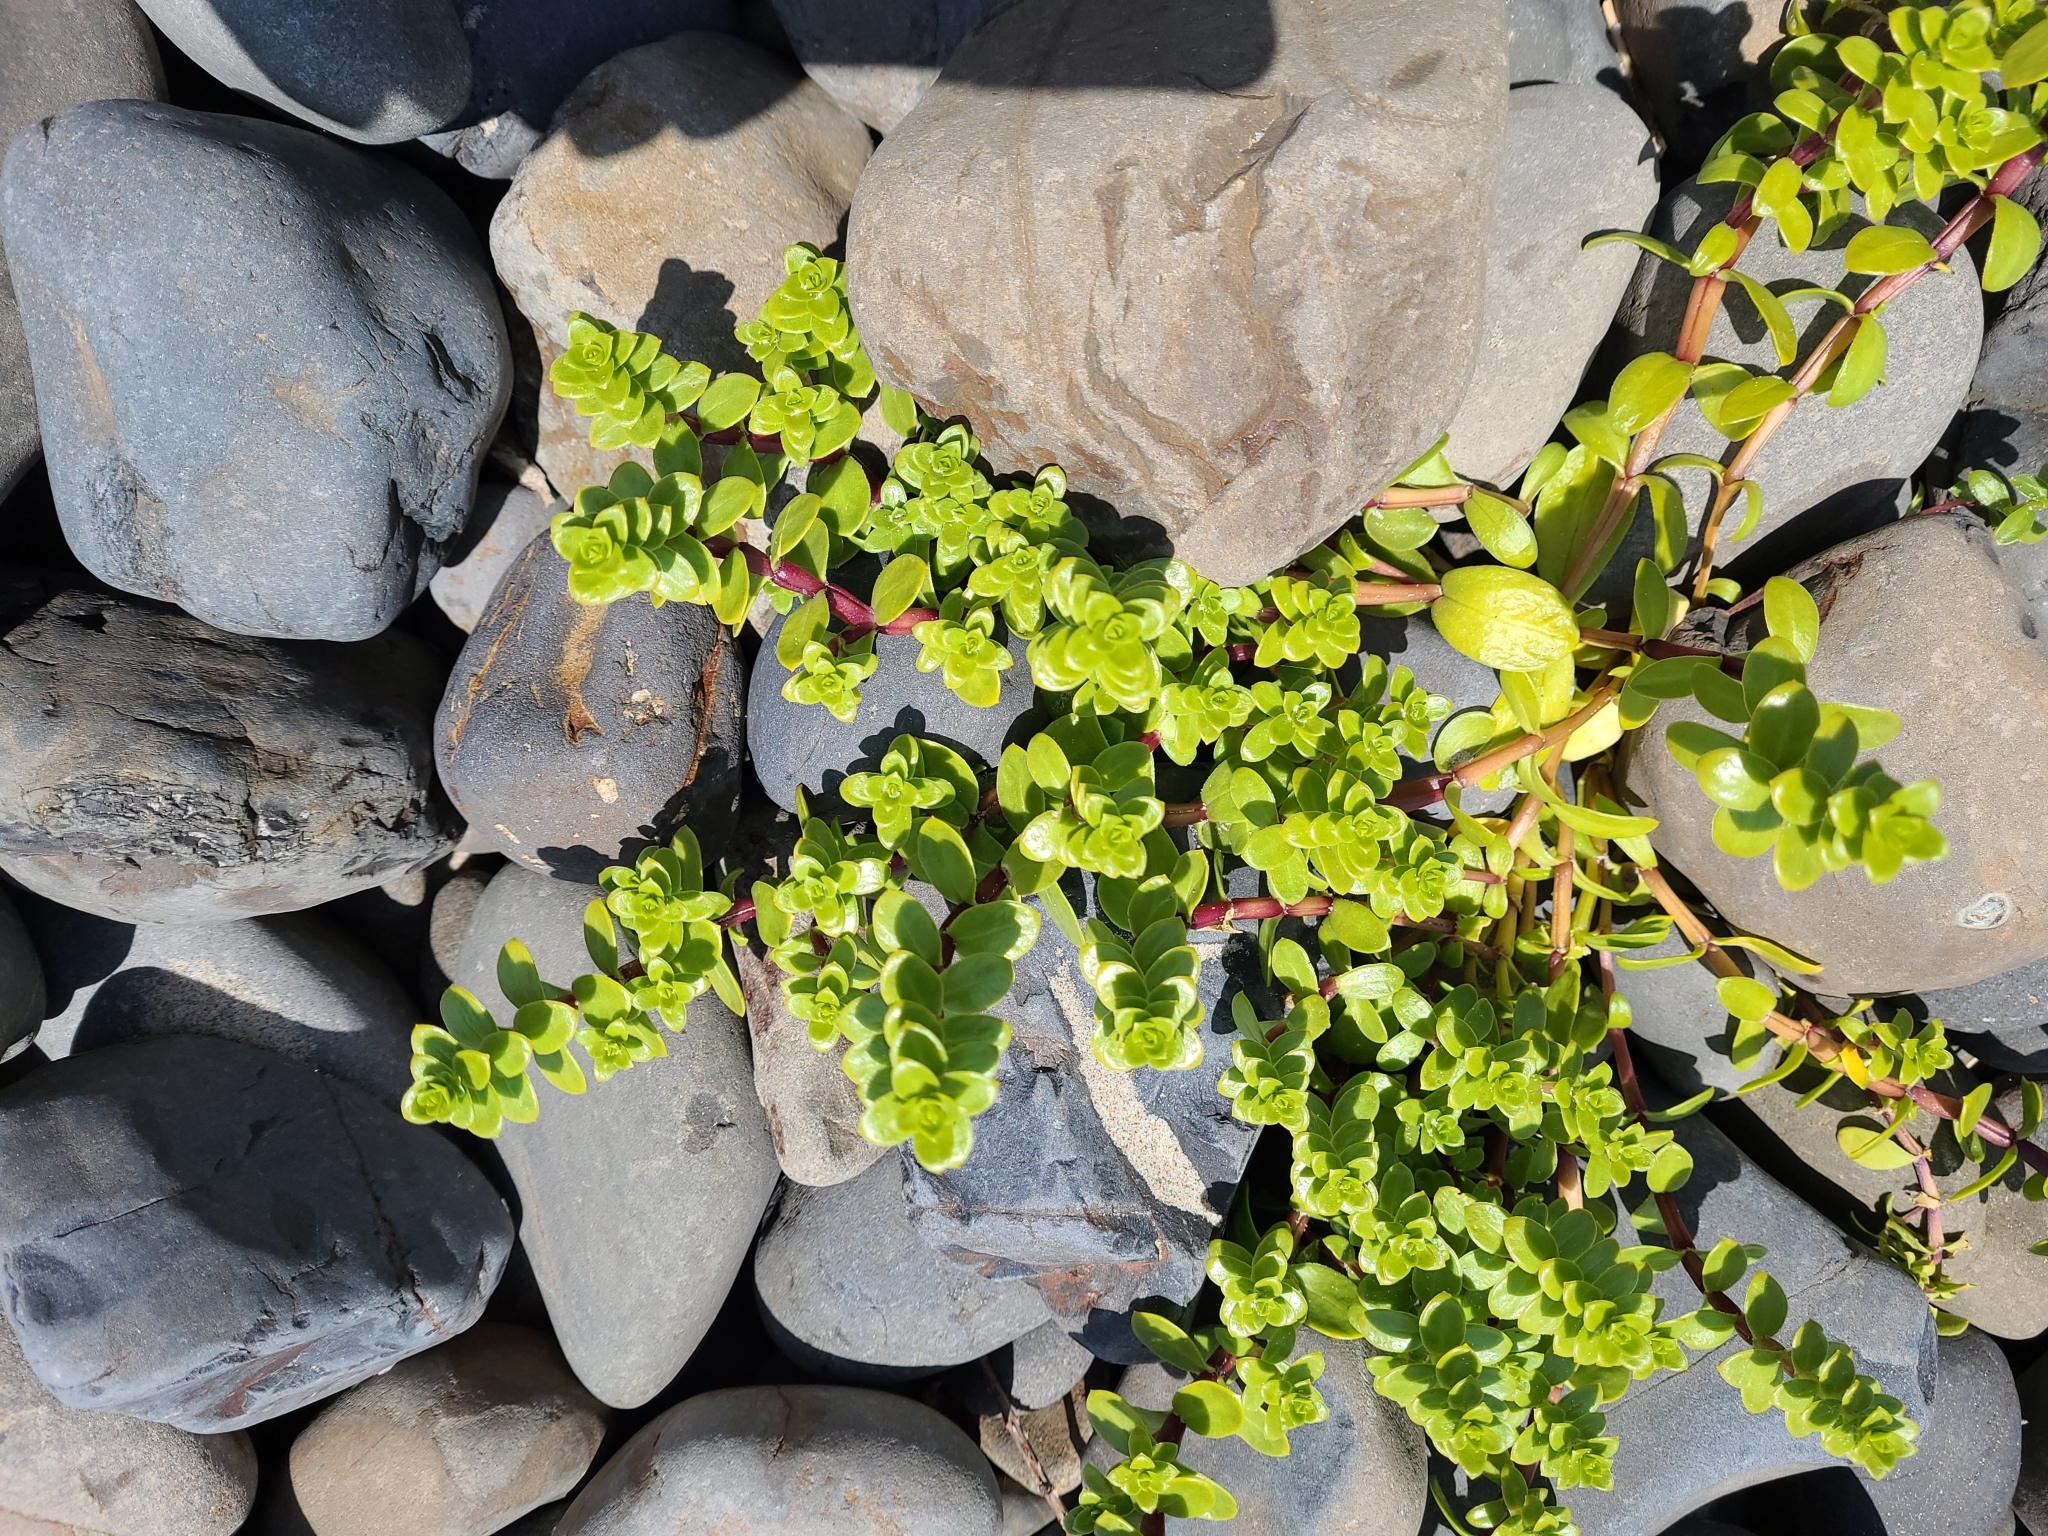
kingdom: Plantae
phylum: Tracheophyta
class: Magnoliopsida
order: Caryophyllales
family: Caryophyllaceae
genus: Honckenya
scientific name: Honckenya peploides
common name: Sea sandwort
